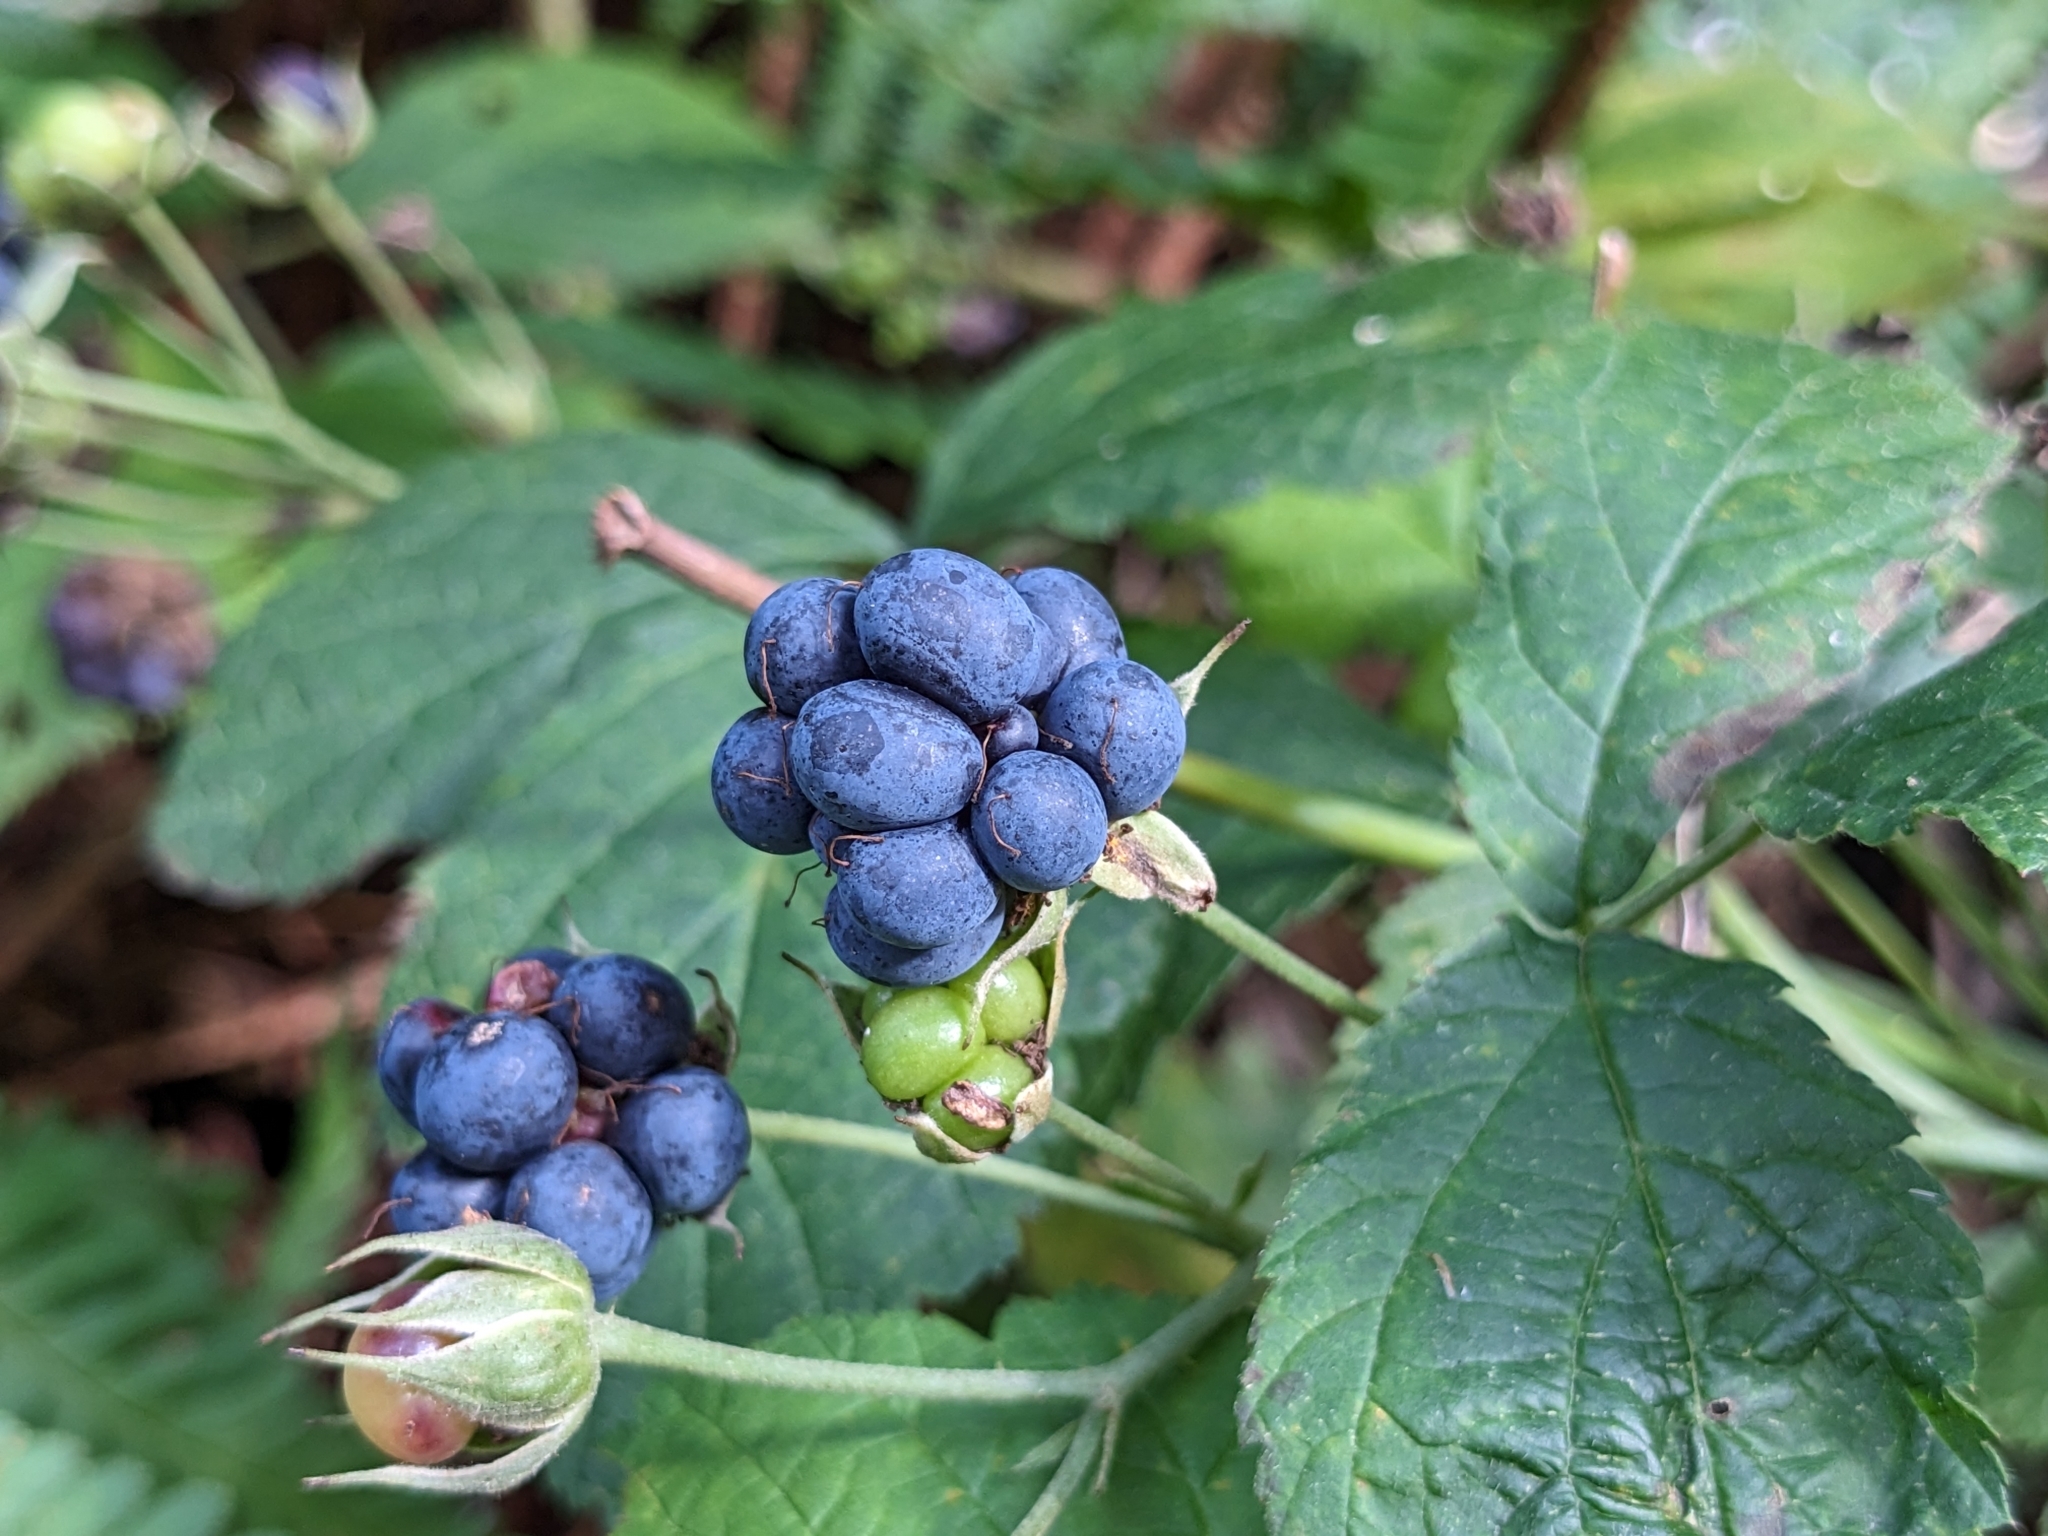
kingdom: Plantae
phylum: Tracheophyta
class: Magnoliopsida
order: Rosales
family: Rosaceae
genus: Rubus
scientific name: Rubus caesius
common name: Dewberry
